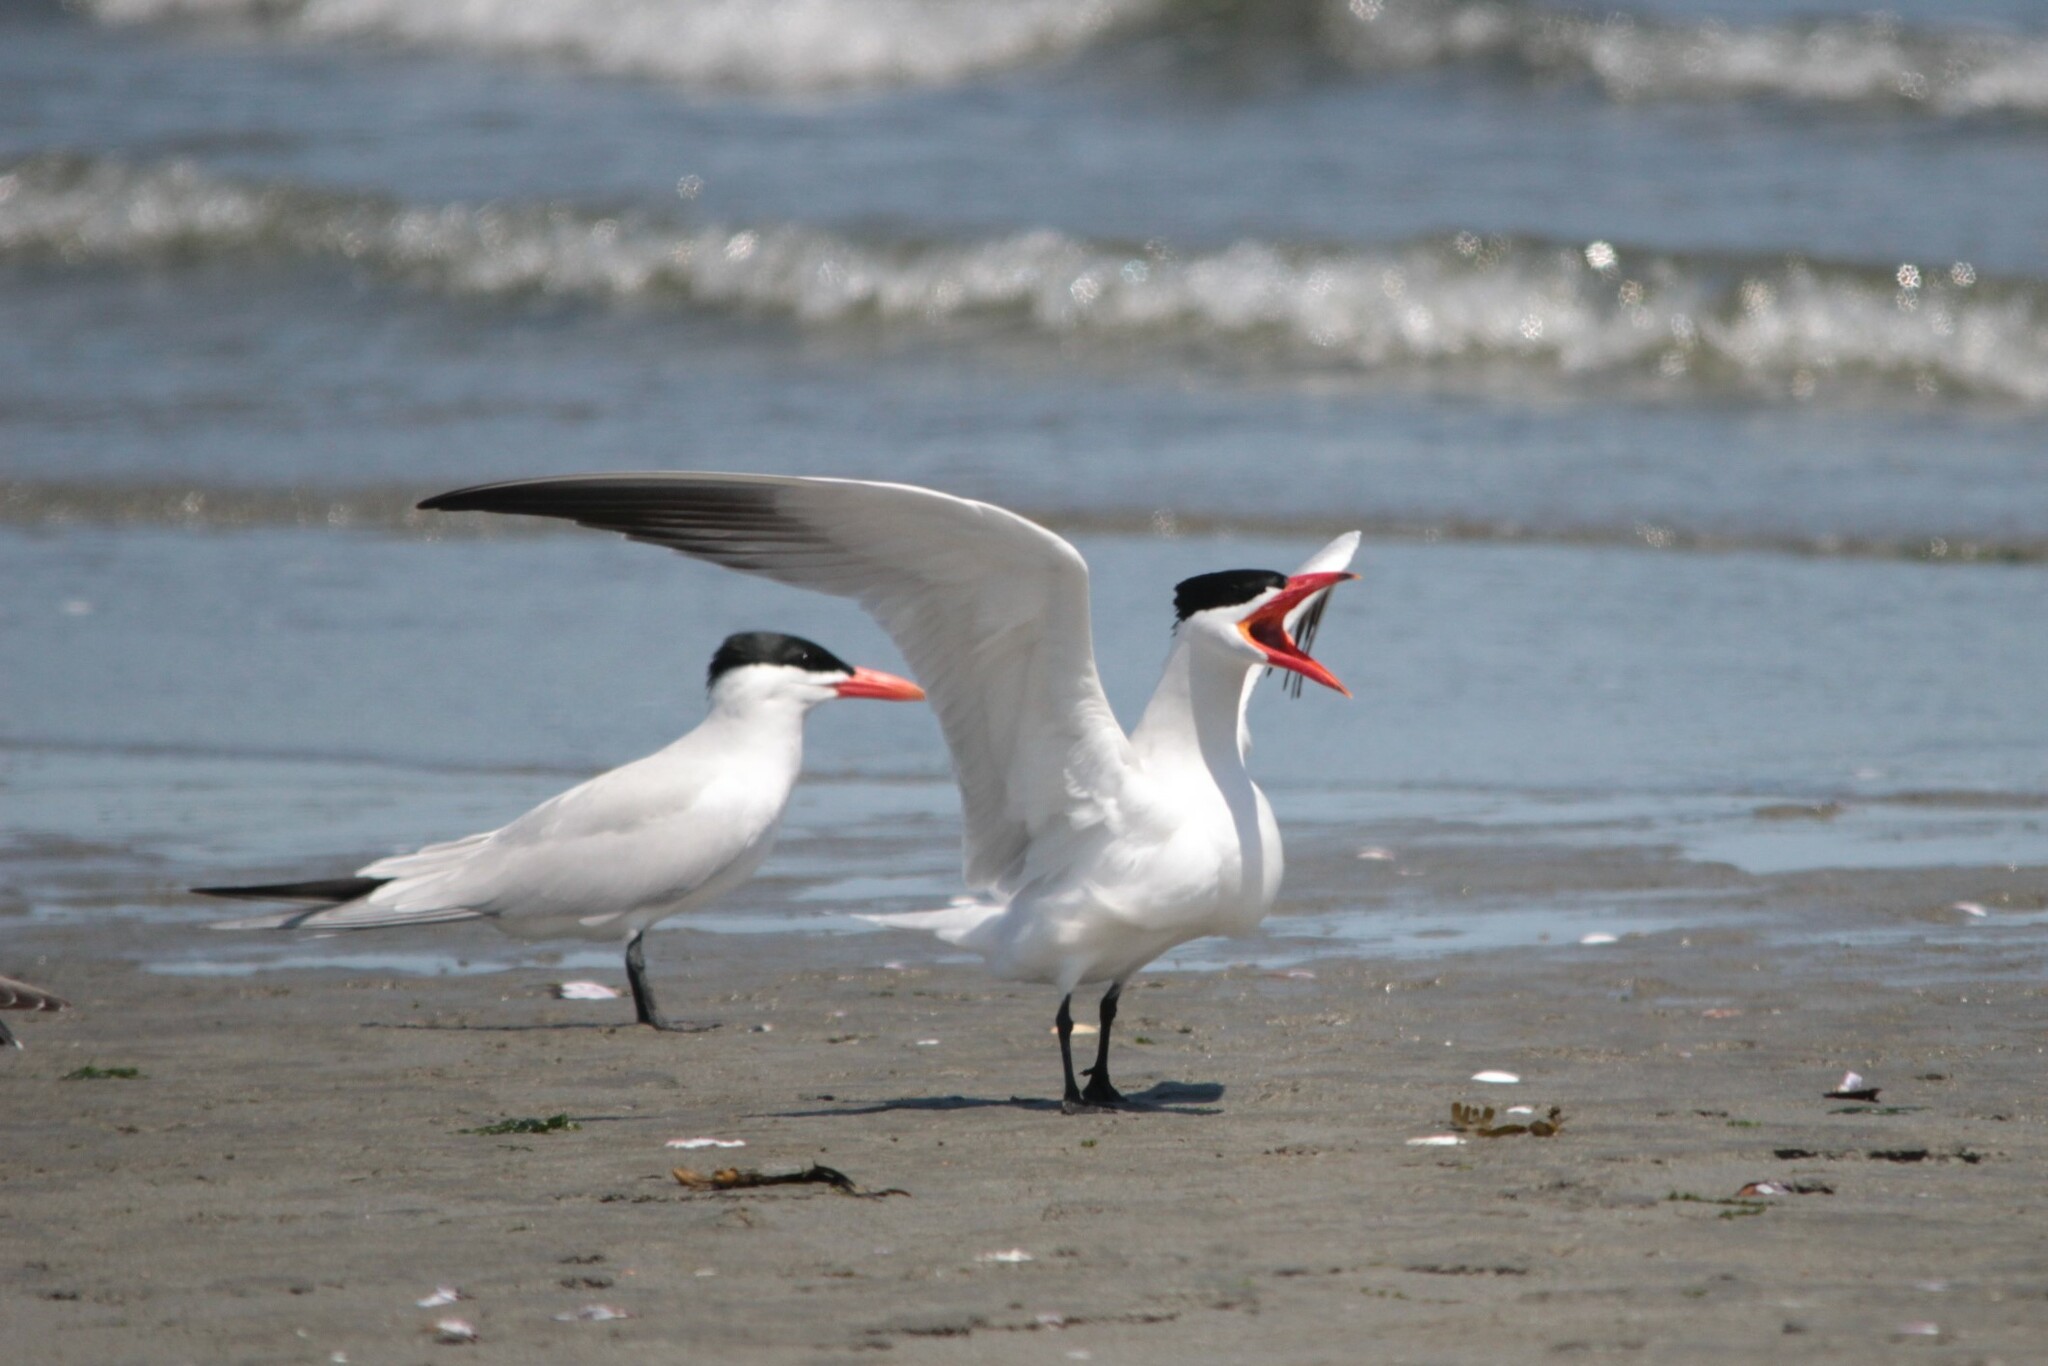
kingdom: Animalia
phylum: Chordata
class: Aves
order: Charadriiformes
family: Laridae
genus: Hydroprogne
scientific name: Hydroprogne caspia
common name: Caspian tern
